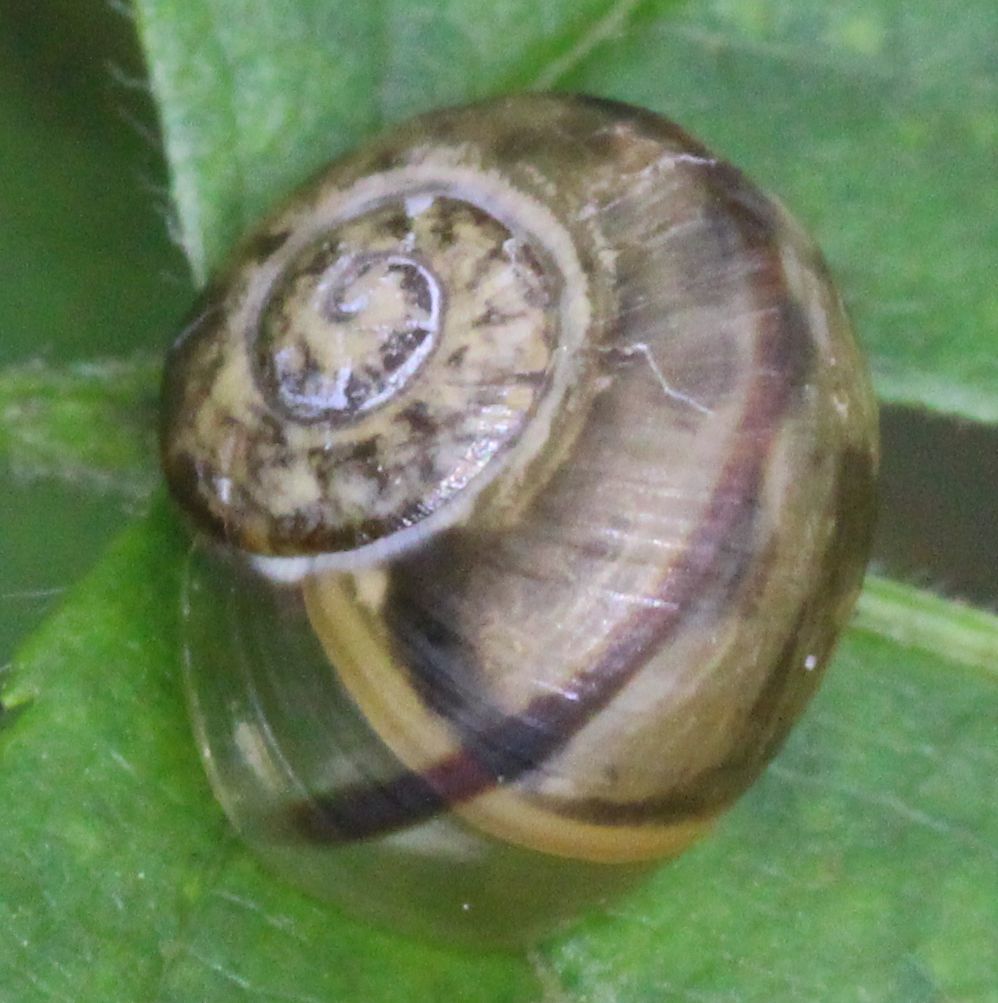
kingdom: Animalia
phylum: Mollusca
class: Gastropoda
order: Stylommatophora
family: Helicidae
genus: Cepaea
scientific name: Cepaea
